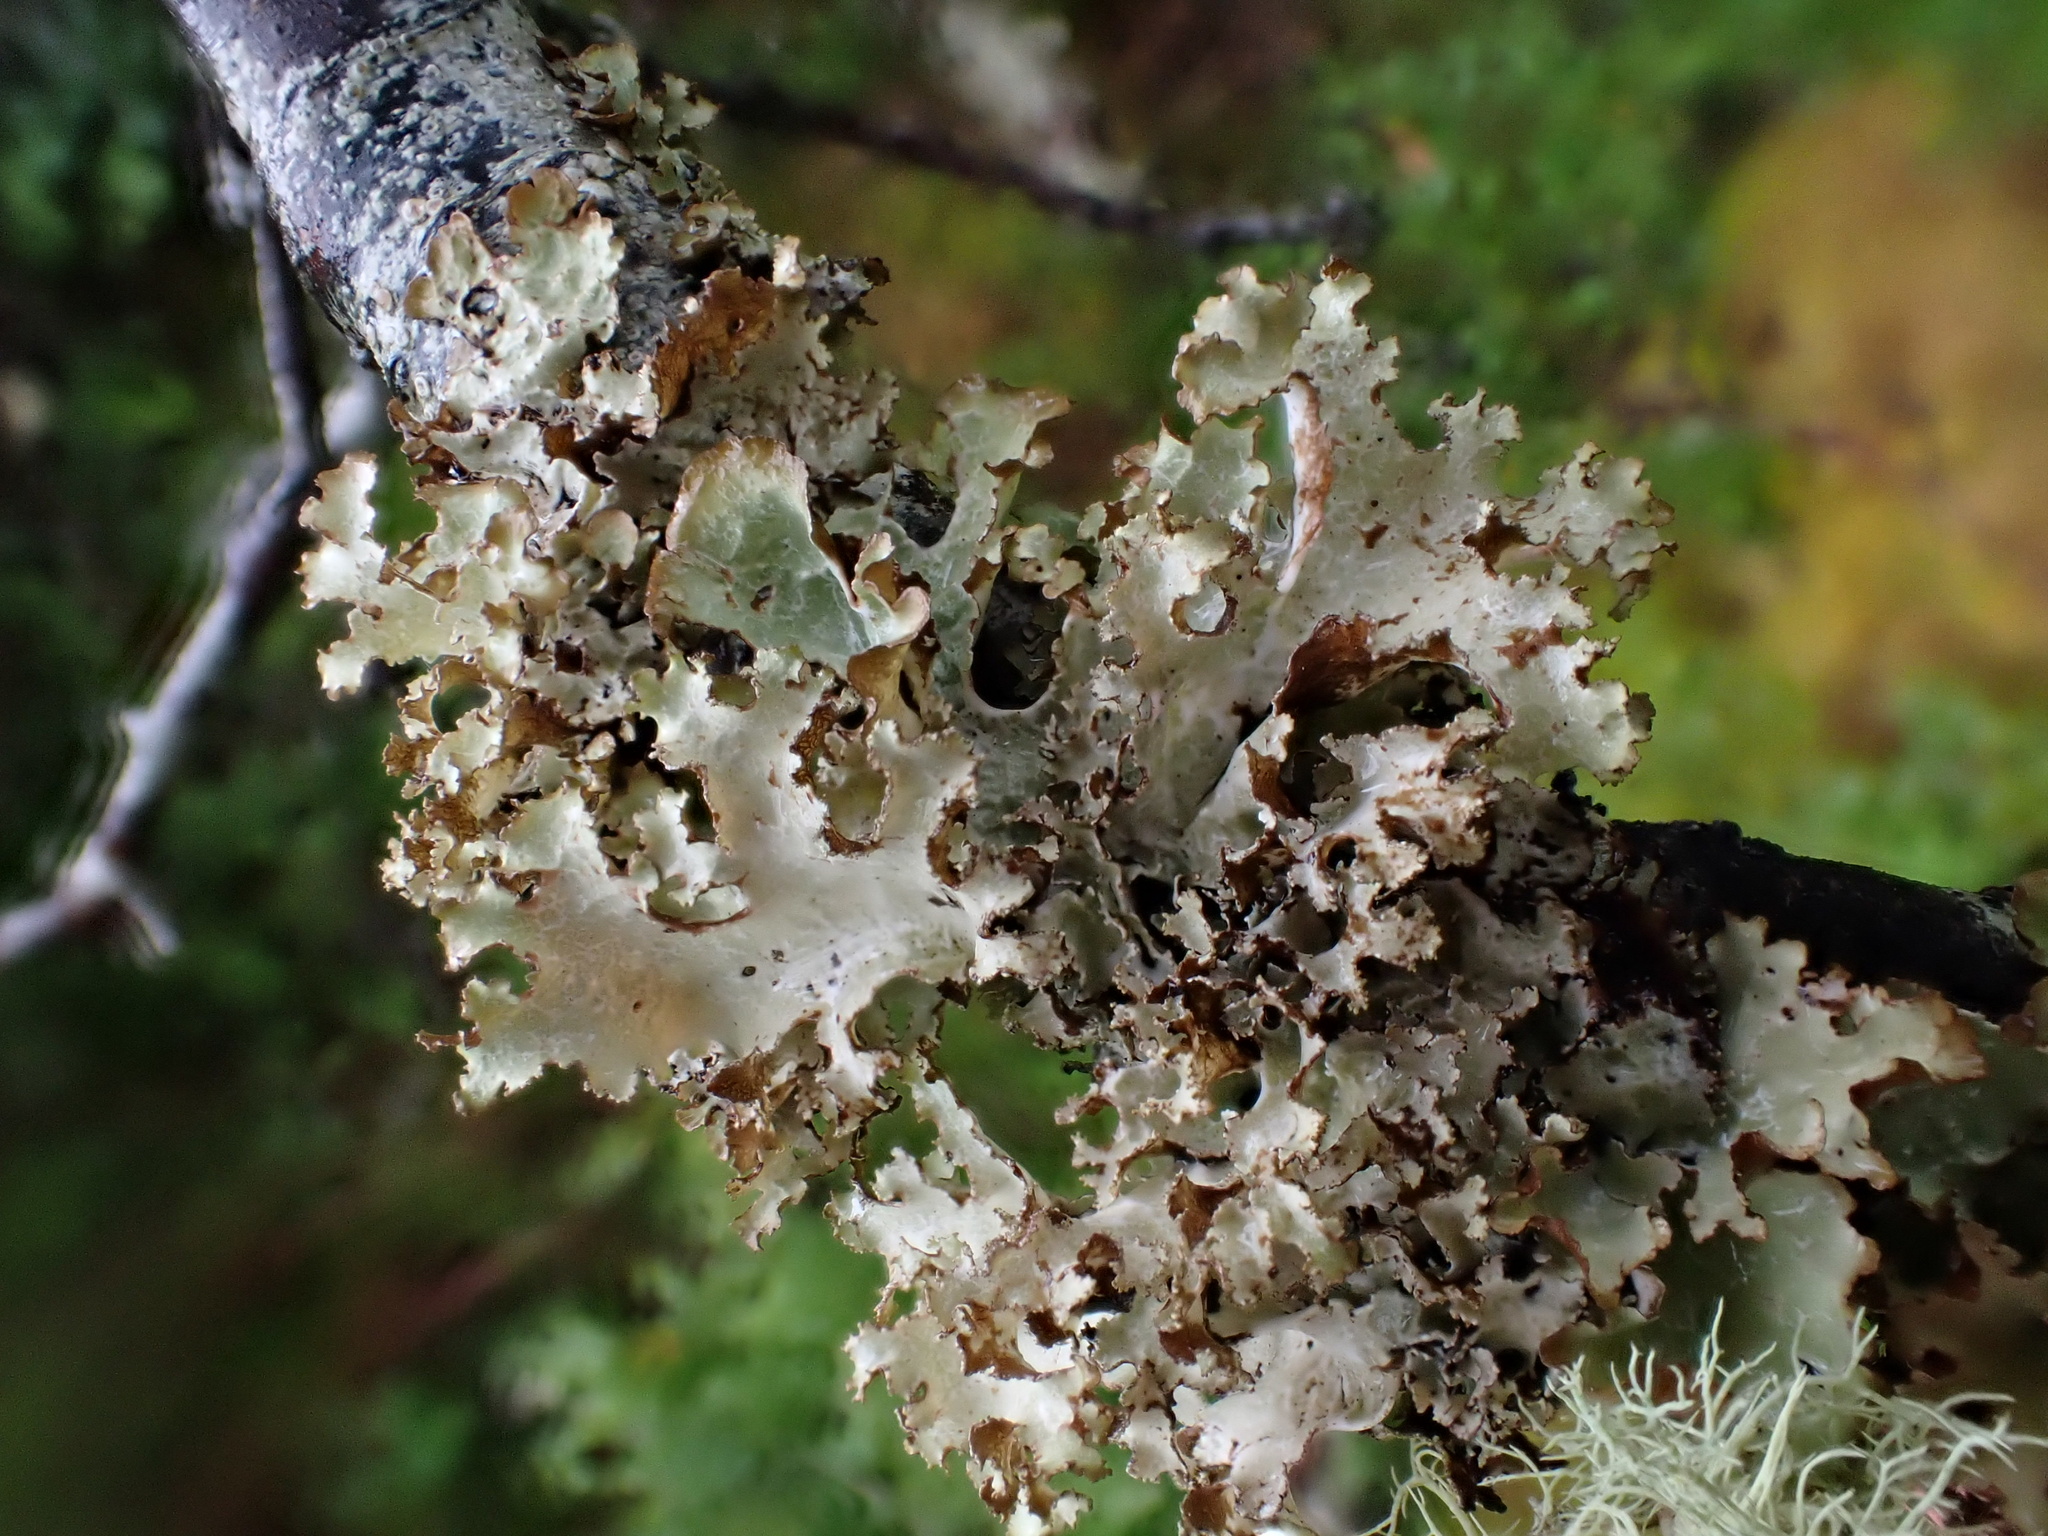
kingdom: Fungi
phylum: Ascomycota
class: Lecanoromycetes
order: Lecanorales
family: Parmeliaceae
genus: Platismatia
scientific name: Platismatia glauca
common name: Varied rag lichen
